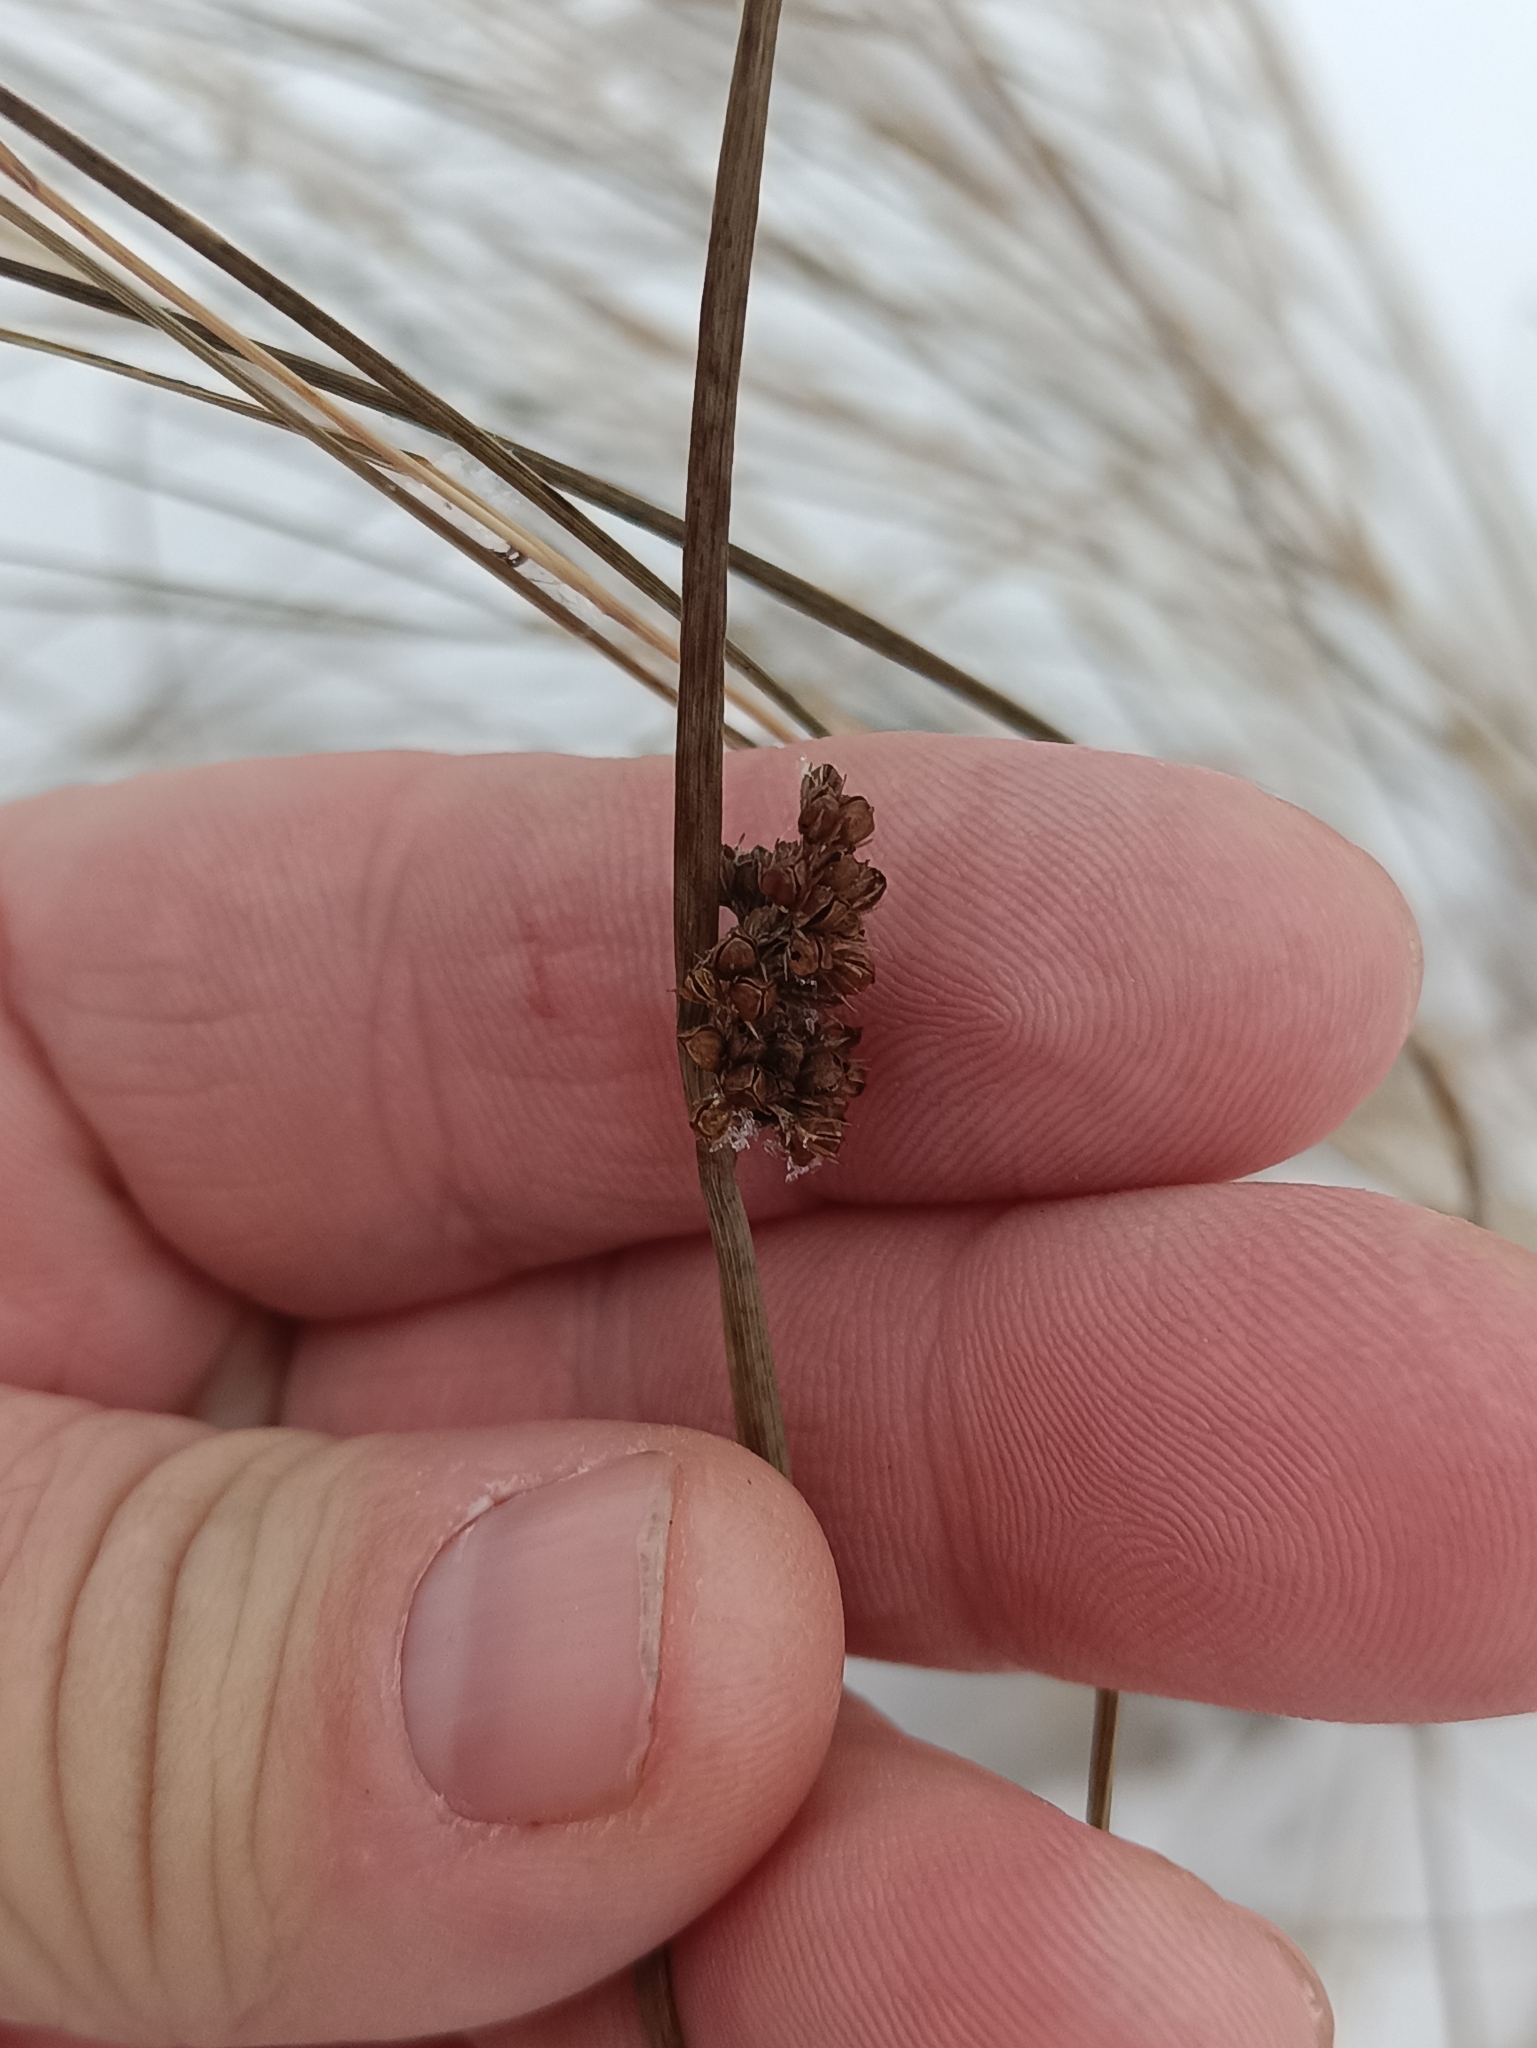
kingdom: Plantae
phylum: Tracheophyta
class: Liliopsida
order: Poales
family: Juncaceae
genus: Juncus
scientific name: Juncus effusus
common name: Soft rush
